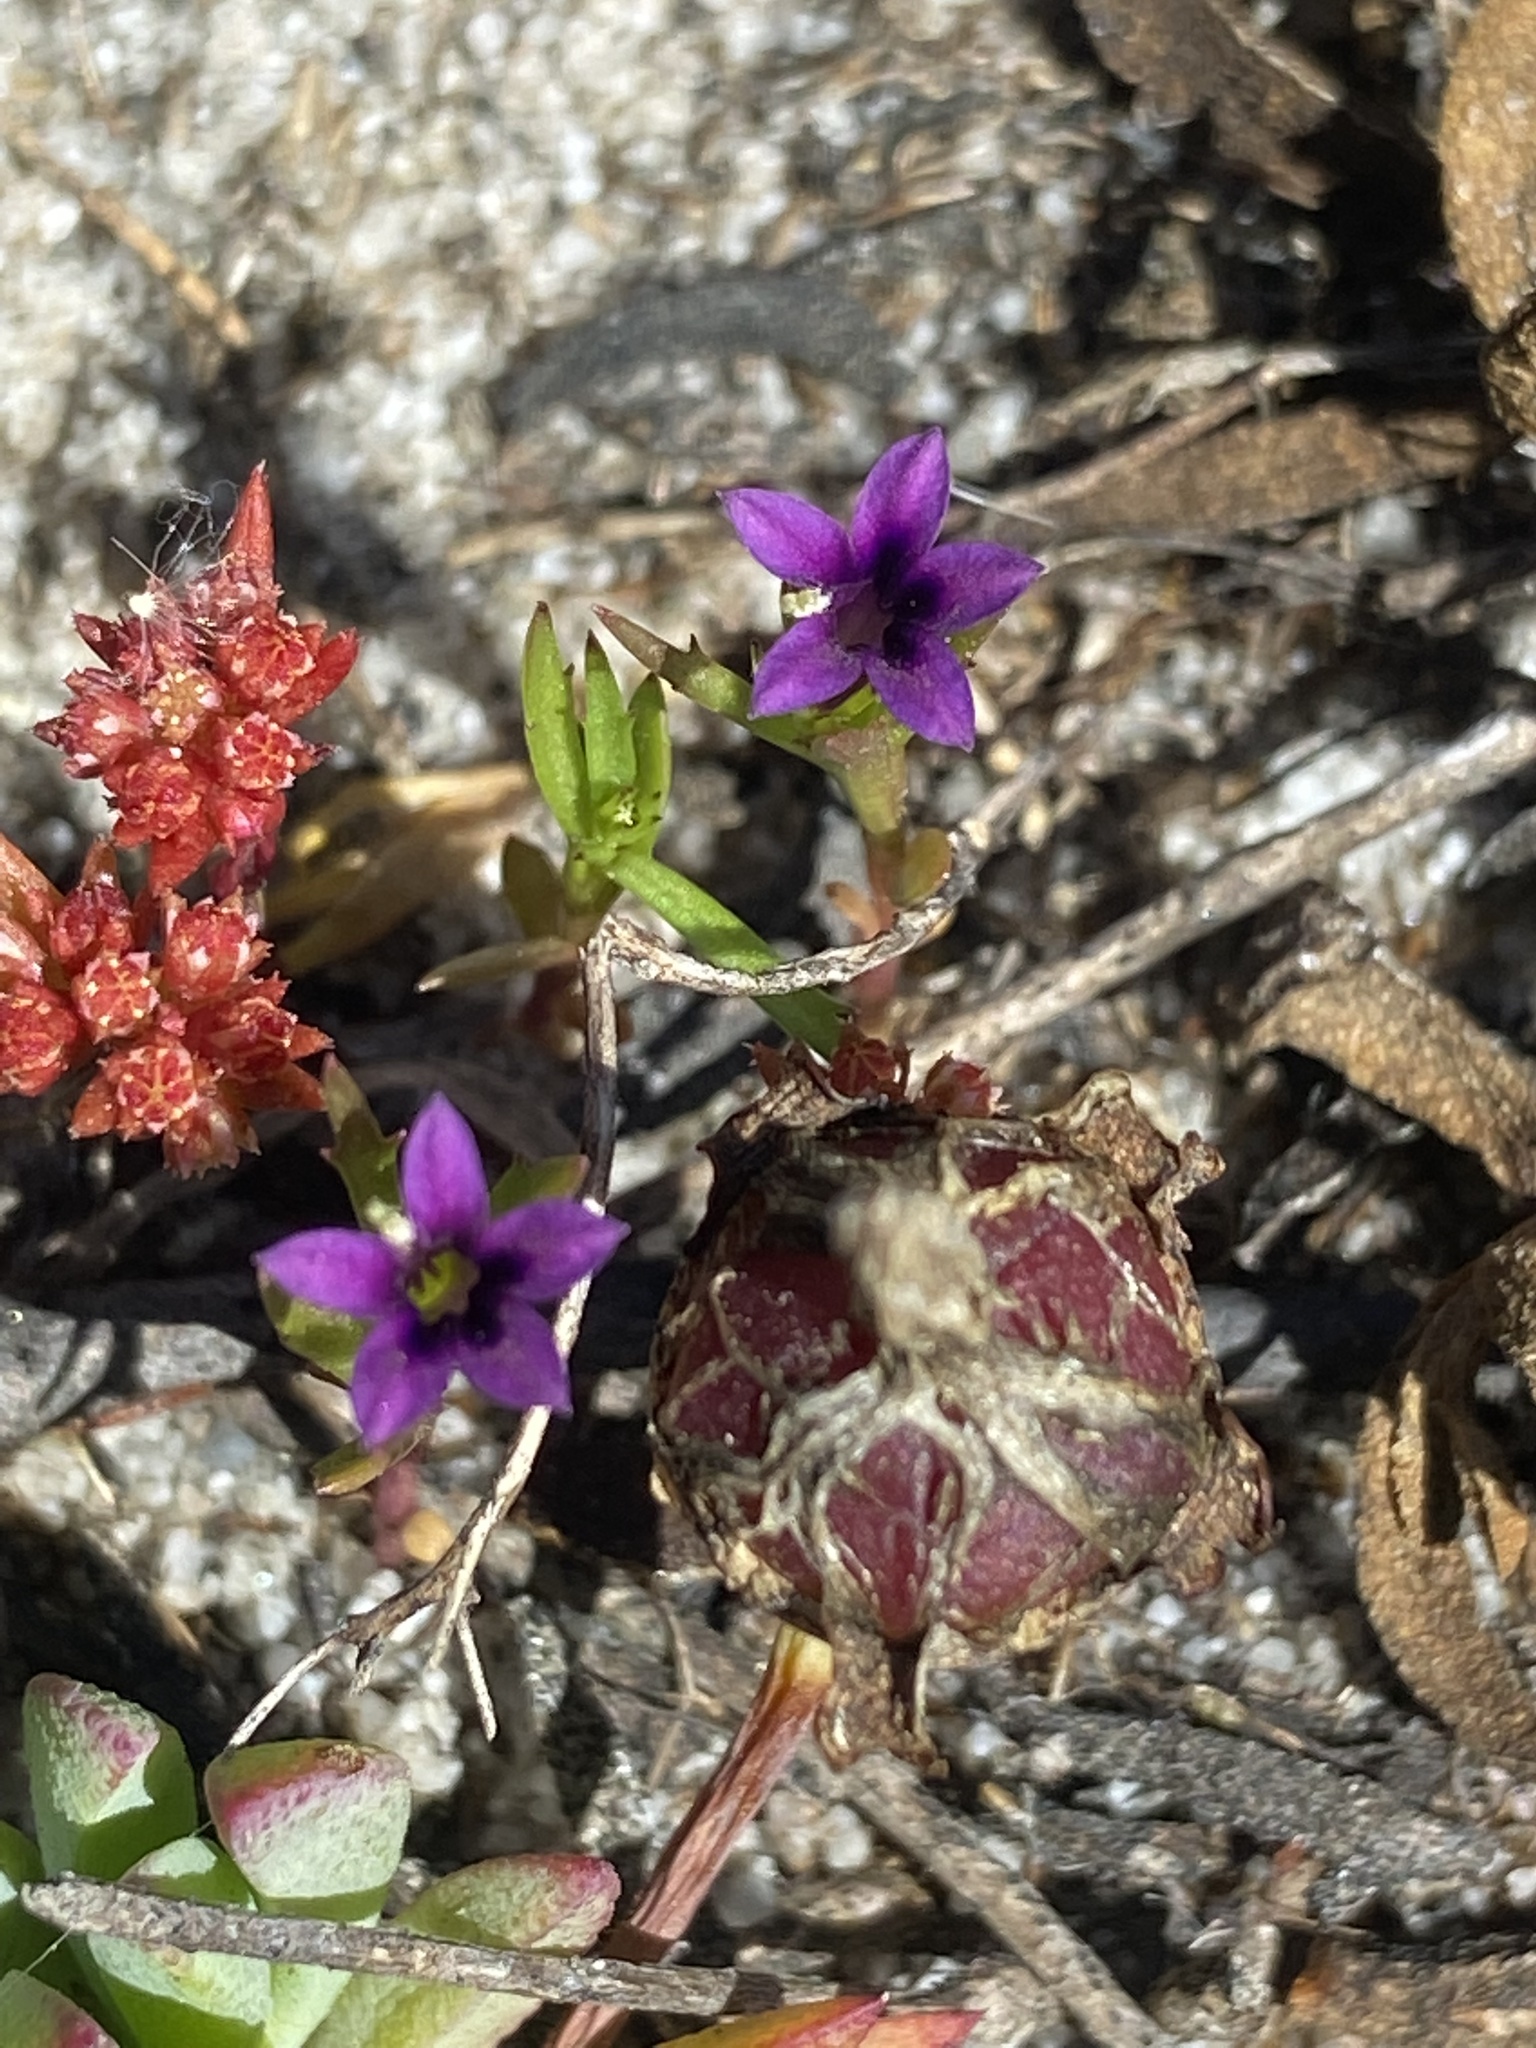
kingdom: Plantae
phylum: Tracheophyta
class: Magnoliopsida
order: Asterales
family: Campanulaceae
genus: Monopsis
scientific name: Monopsis debilis
